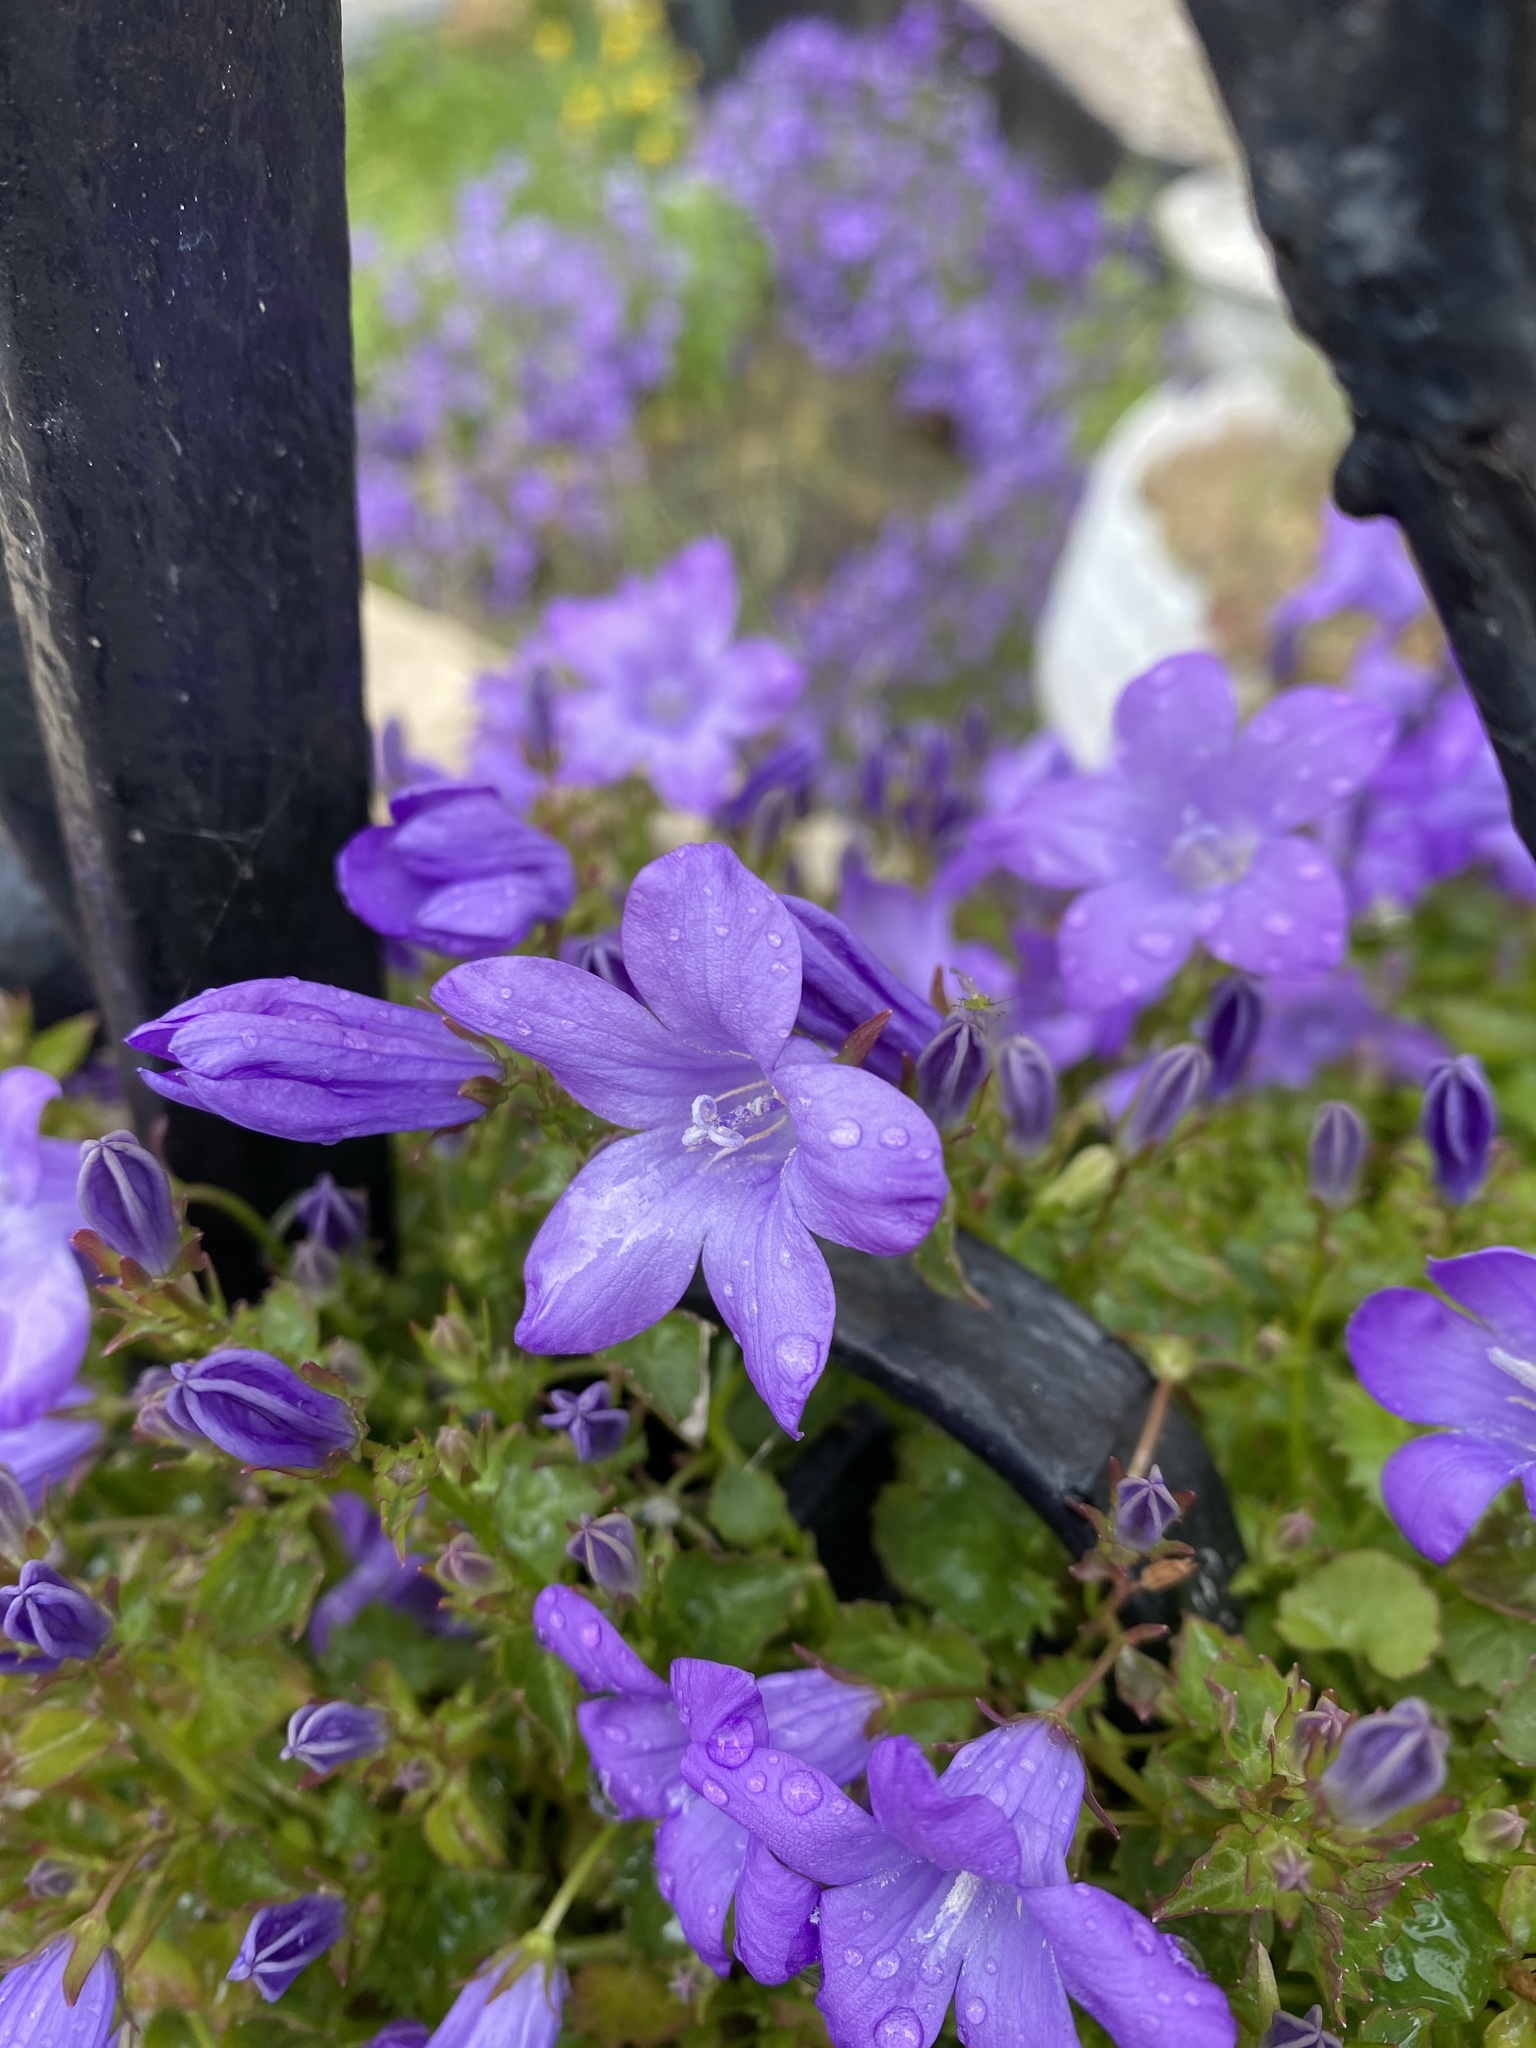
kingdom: Plantae
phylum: Tracheophyta
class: Magnoliopsida
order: Asterales
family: Campanulaceae
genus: Campanula
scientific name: Campanula portenschlagiana
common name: Adria bellflower
